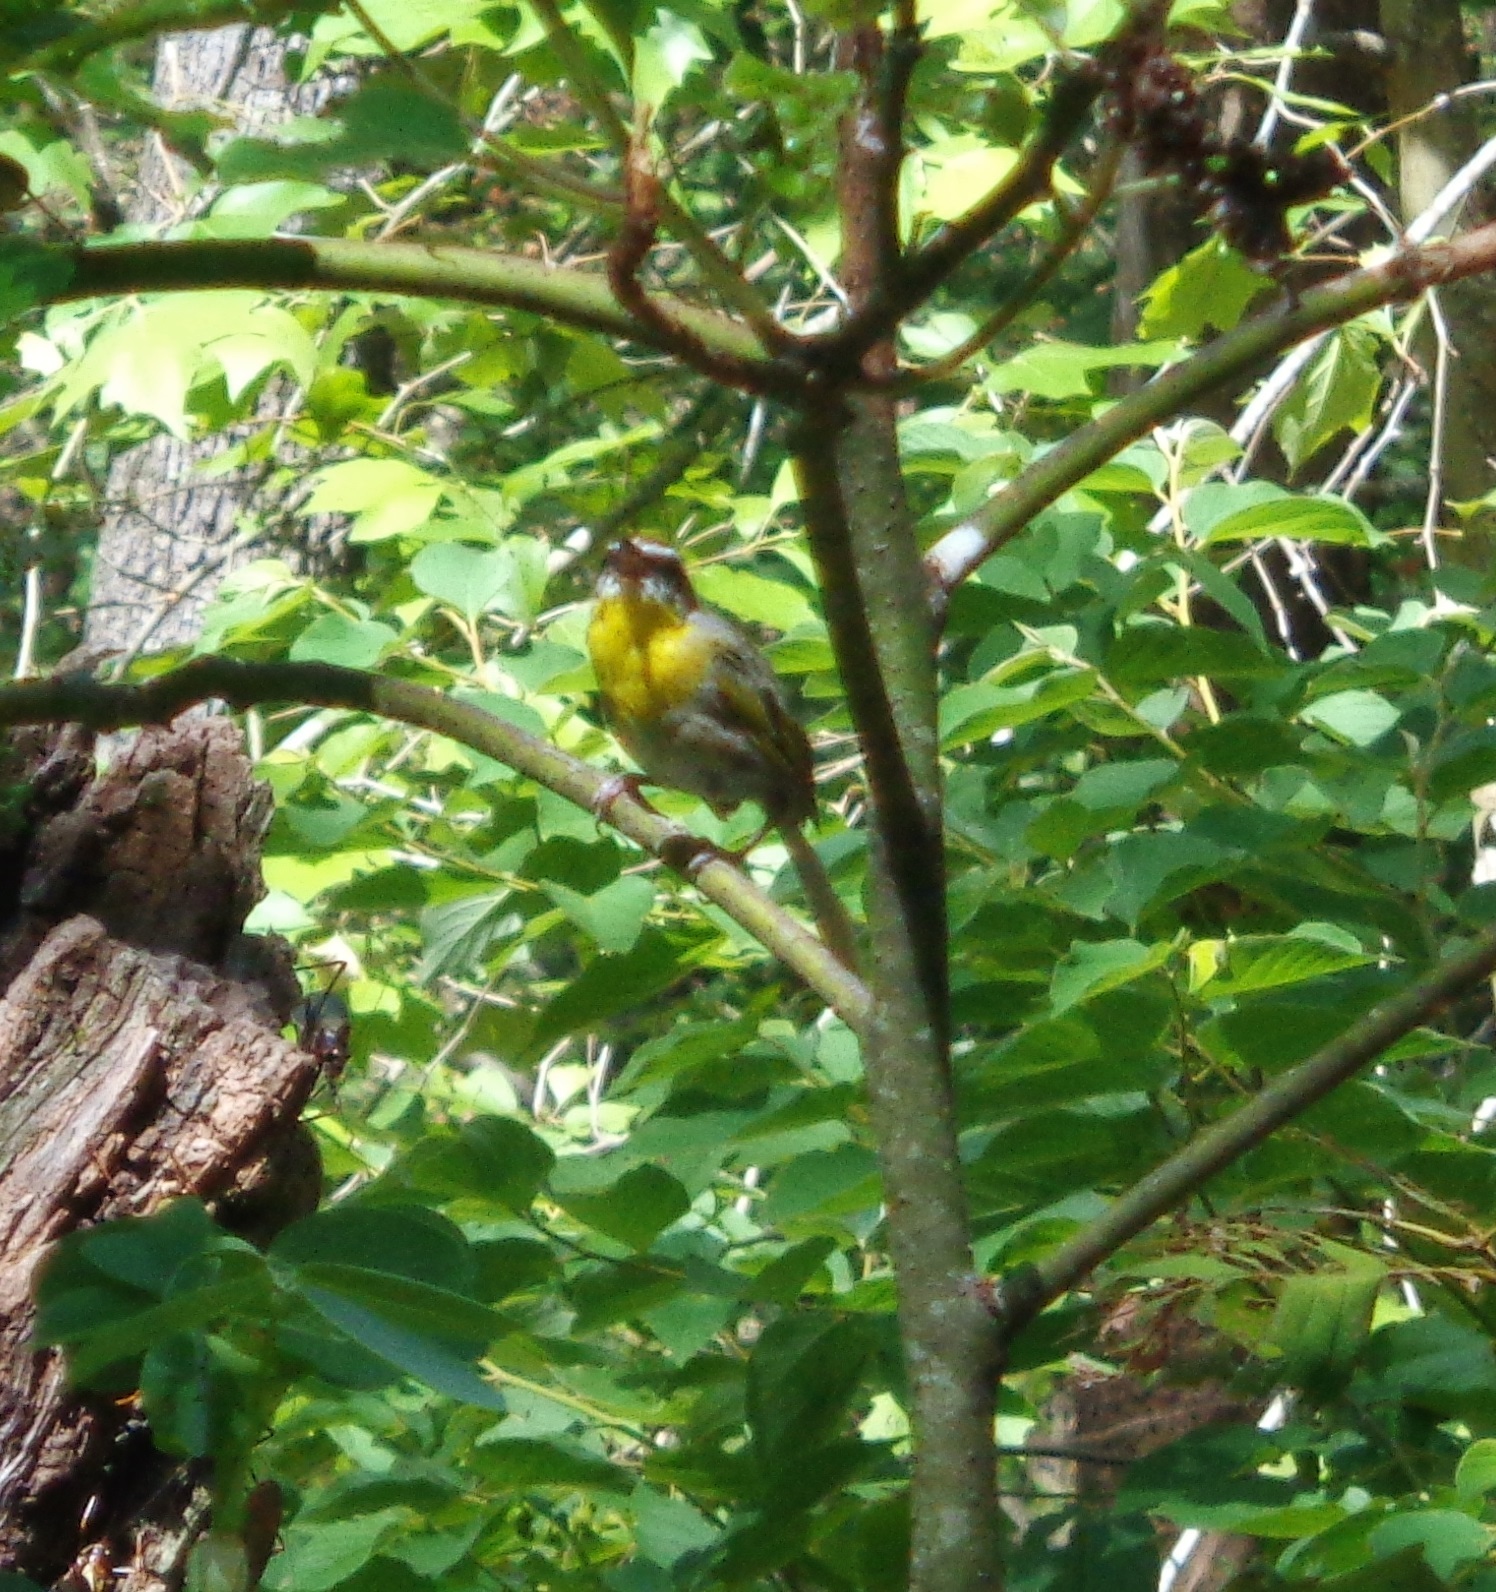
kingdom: Animalia
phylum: Chordata
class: Aves
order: Passeriformes
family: Parulidae
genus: Basileuterus
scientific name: Basileuterus rufifrons
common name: Rufous-capped warbler
